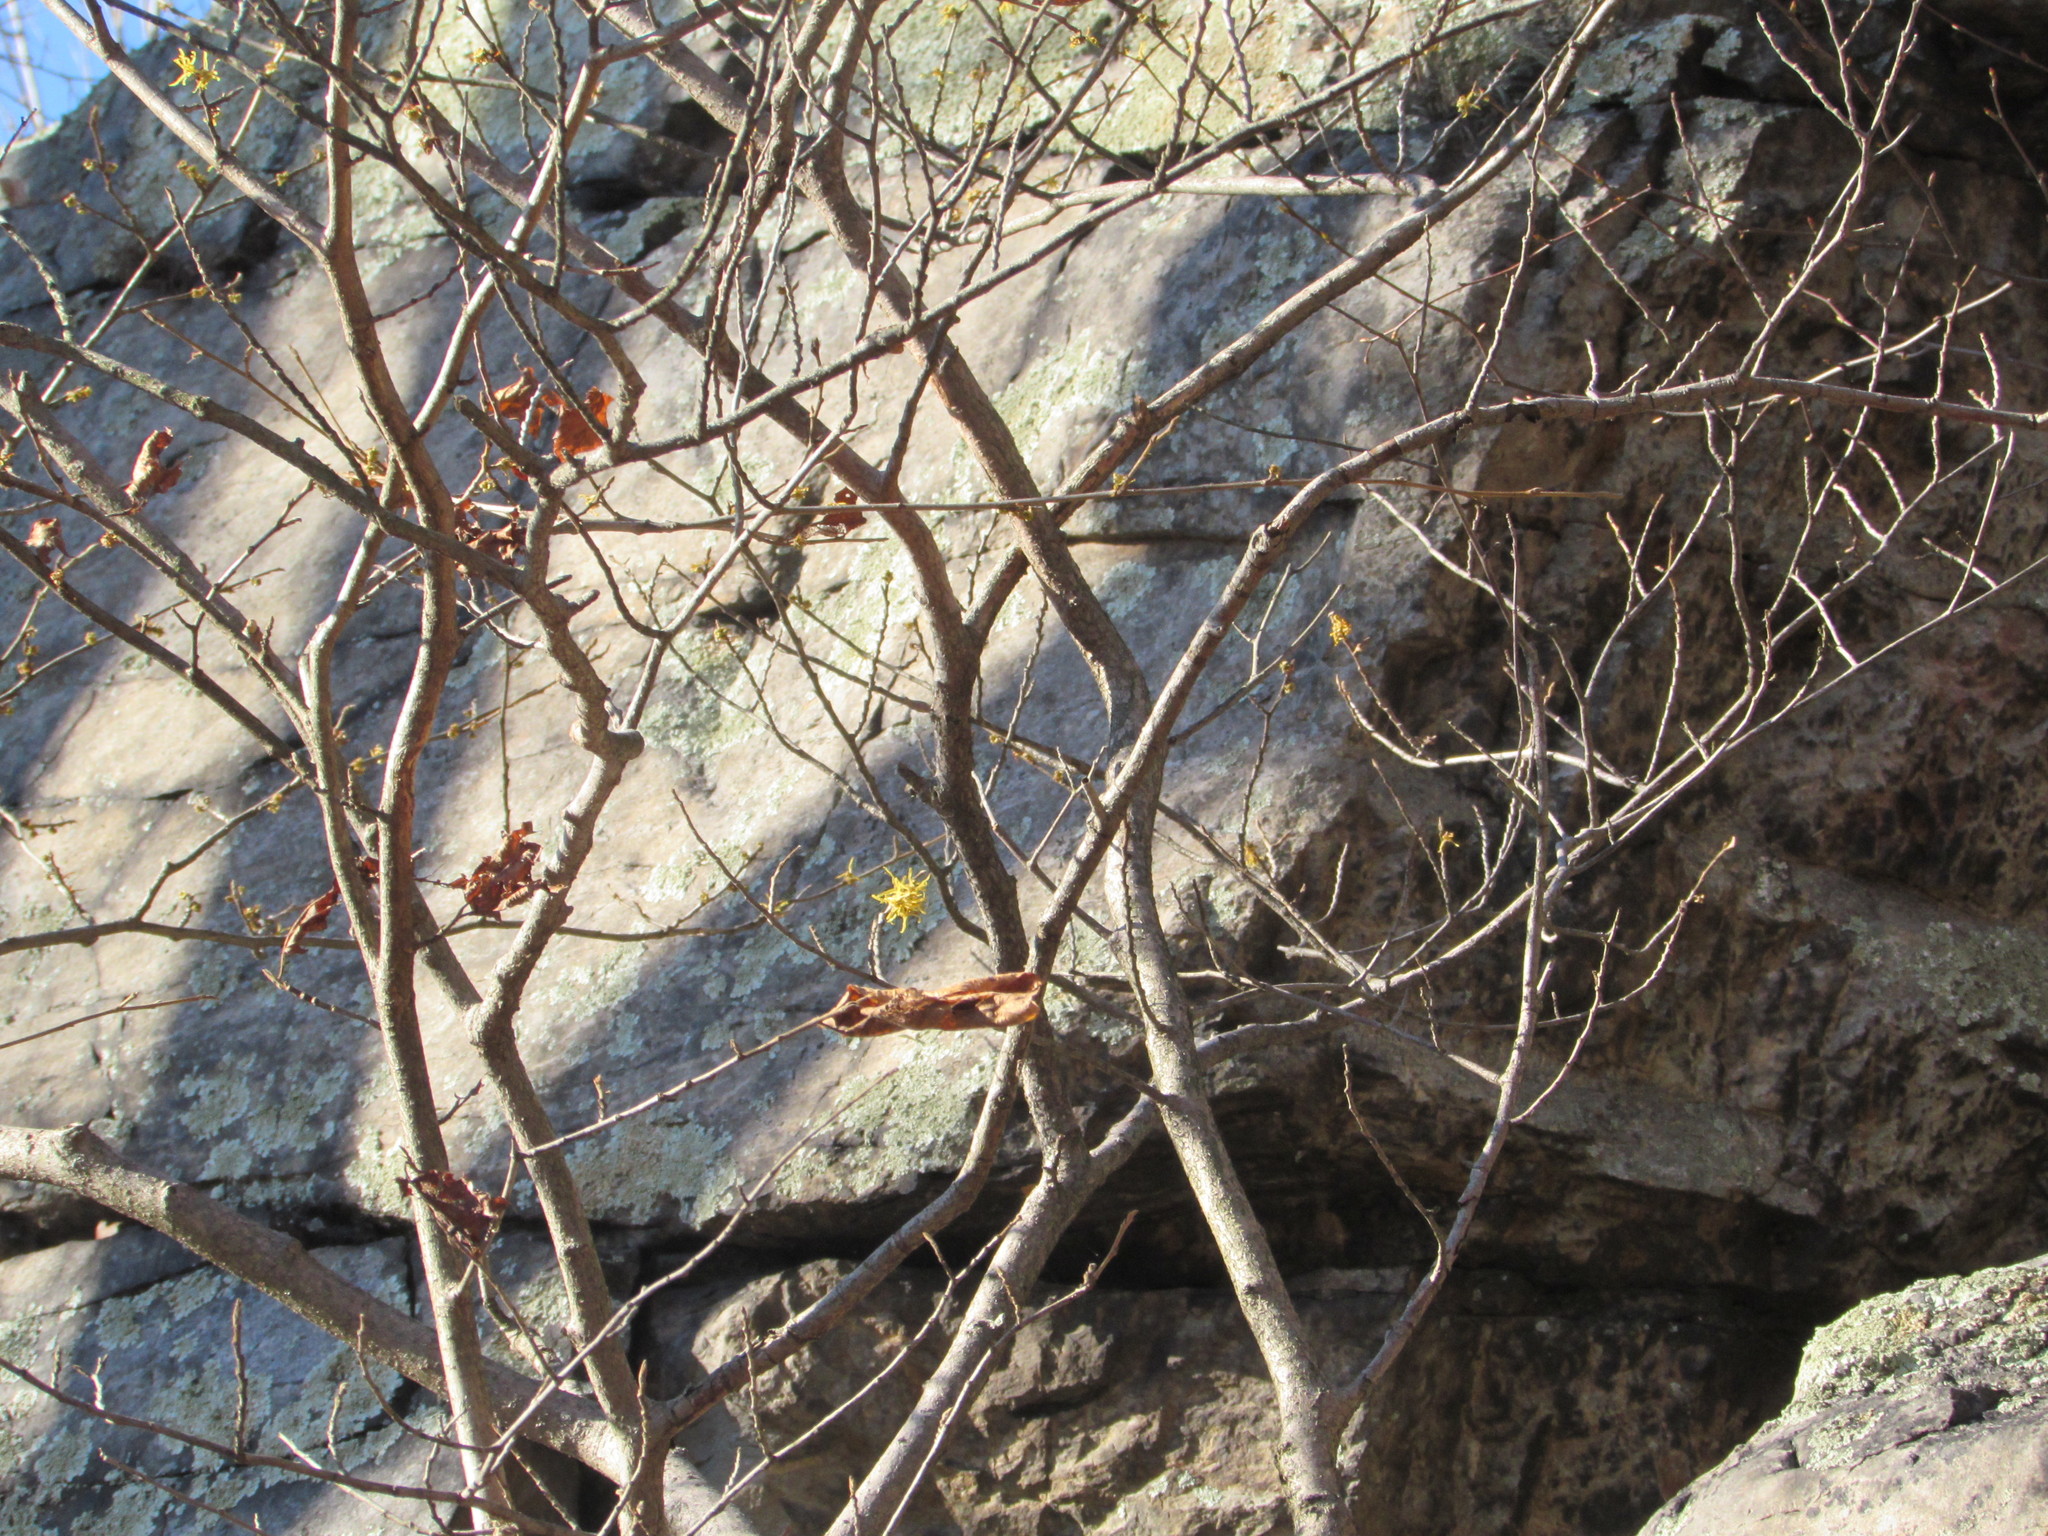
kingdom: Plantae
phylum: Tracheophyta
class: Magnoliopsida
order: Saxifragales
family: Hamamelidaceae
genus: Hamamelis
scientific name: Hamamelis virginiana
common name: Witch-hazel
